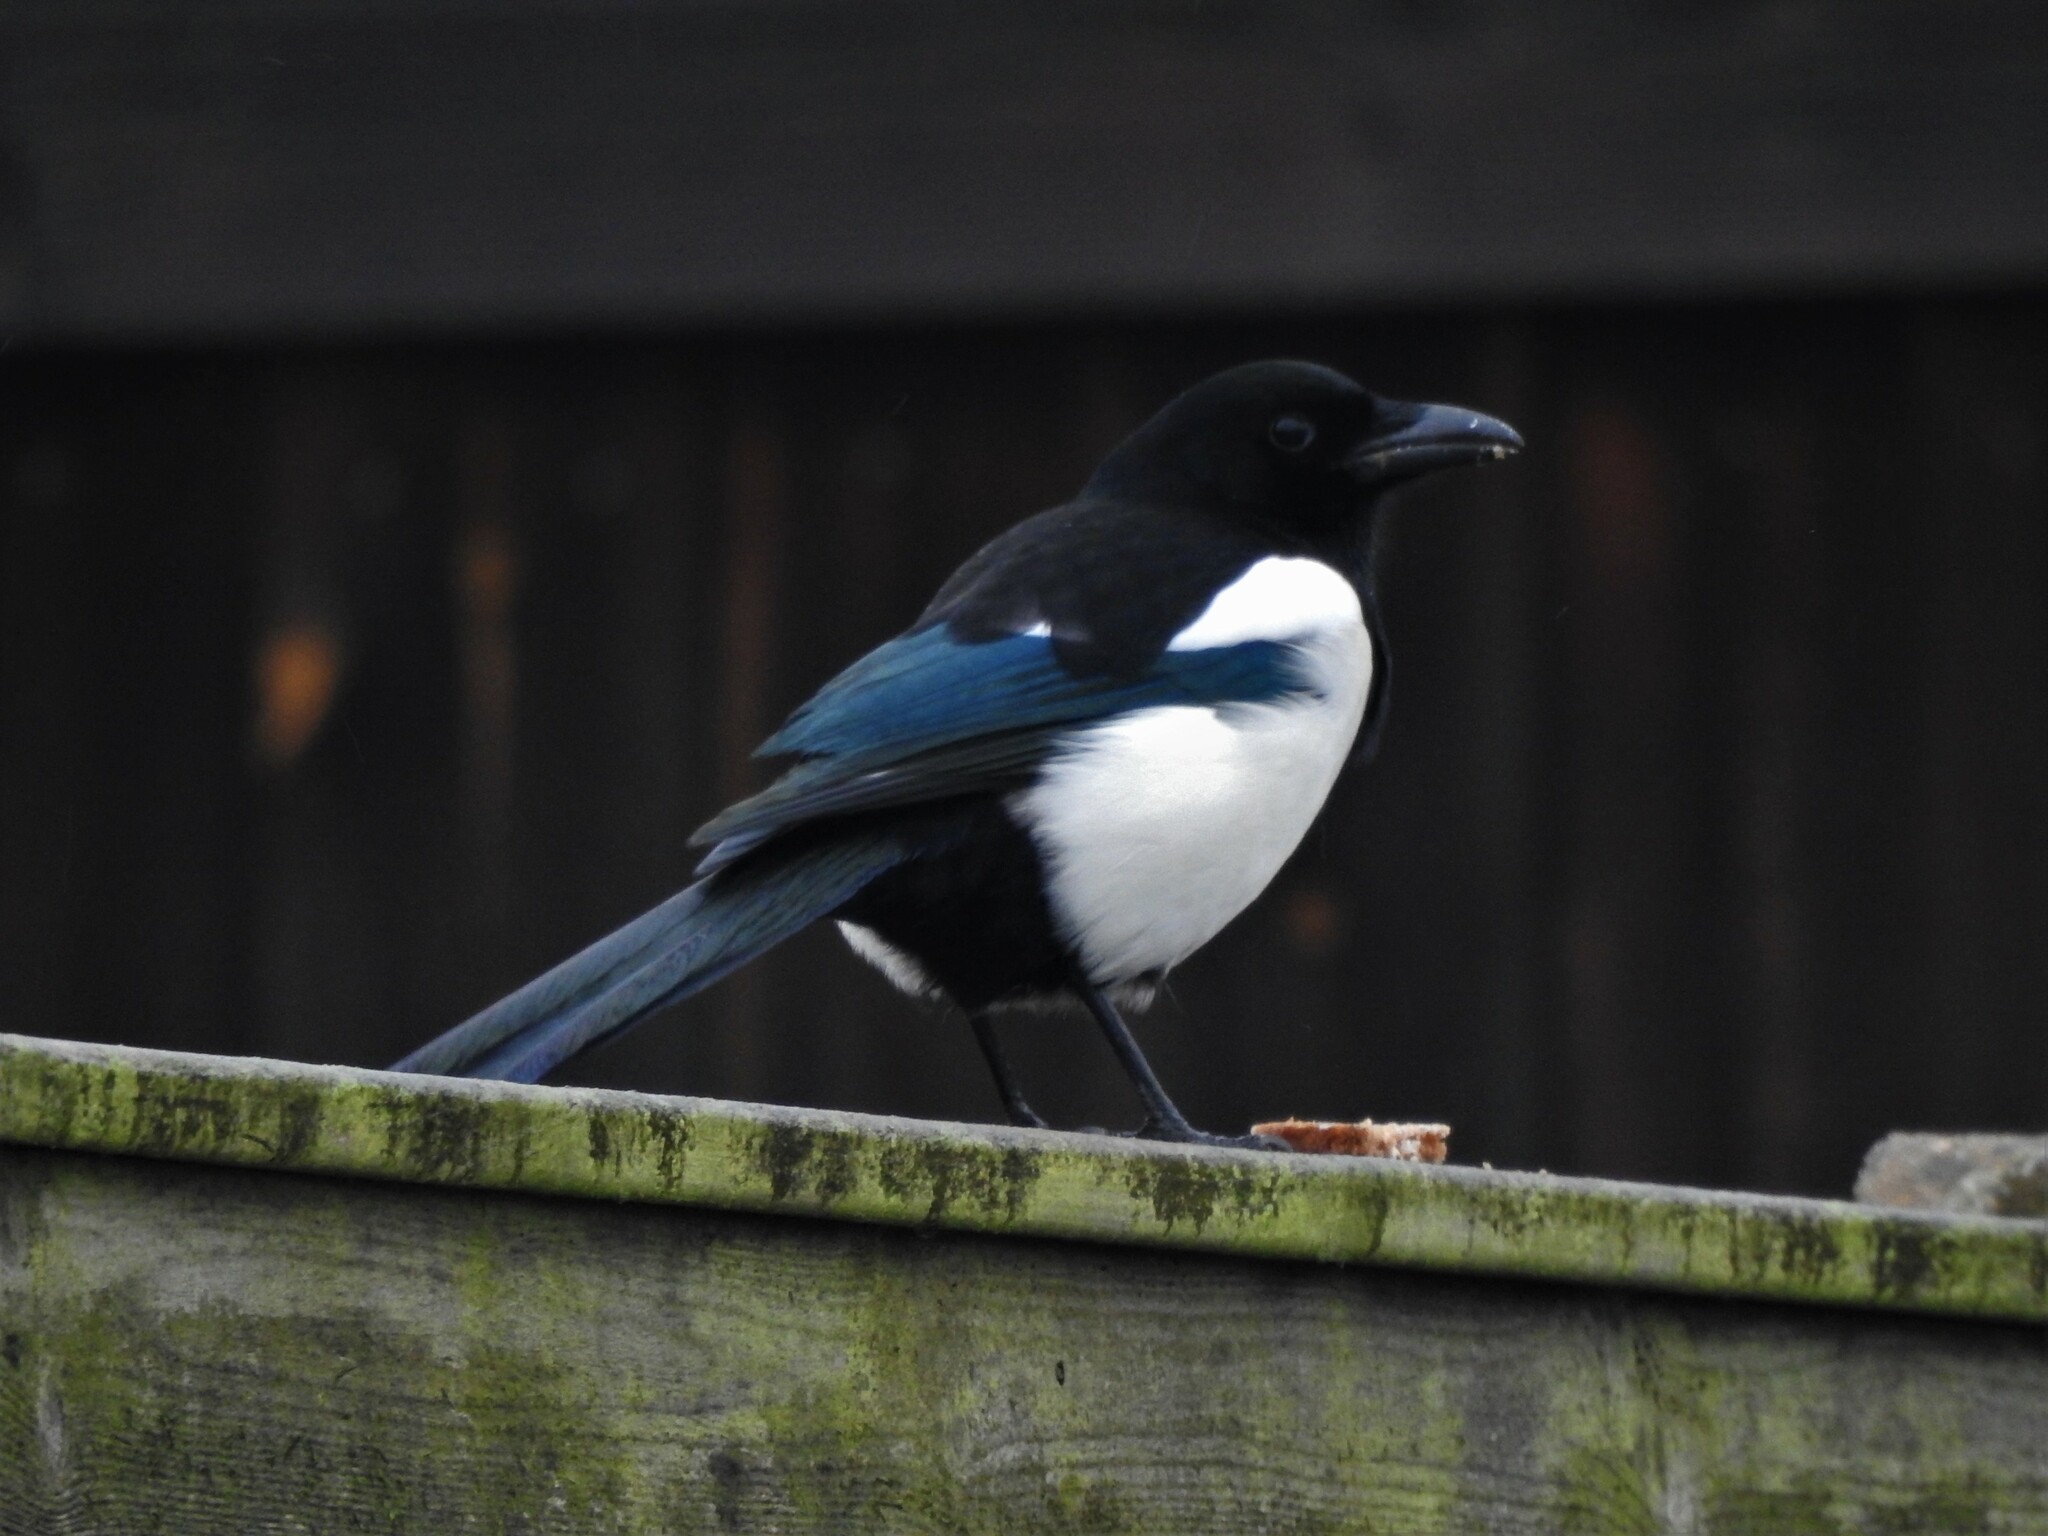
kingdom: Animalia
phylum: Chordata
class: Aves
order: Passeriformes
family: Corvidae
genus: Pica
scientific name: Pica pica
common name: Eurasian magpie
